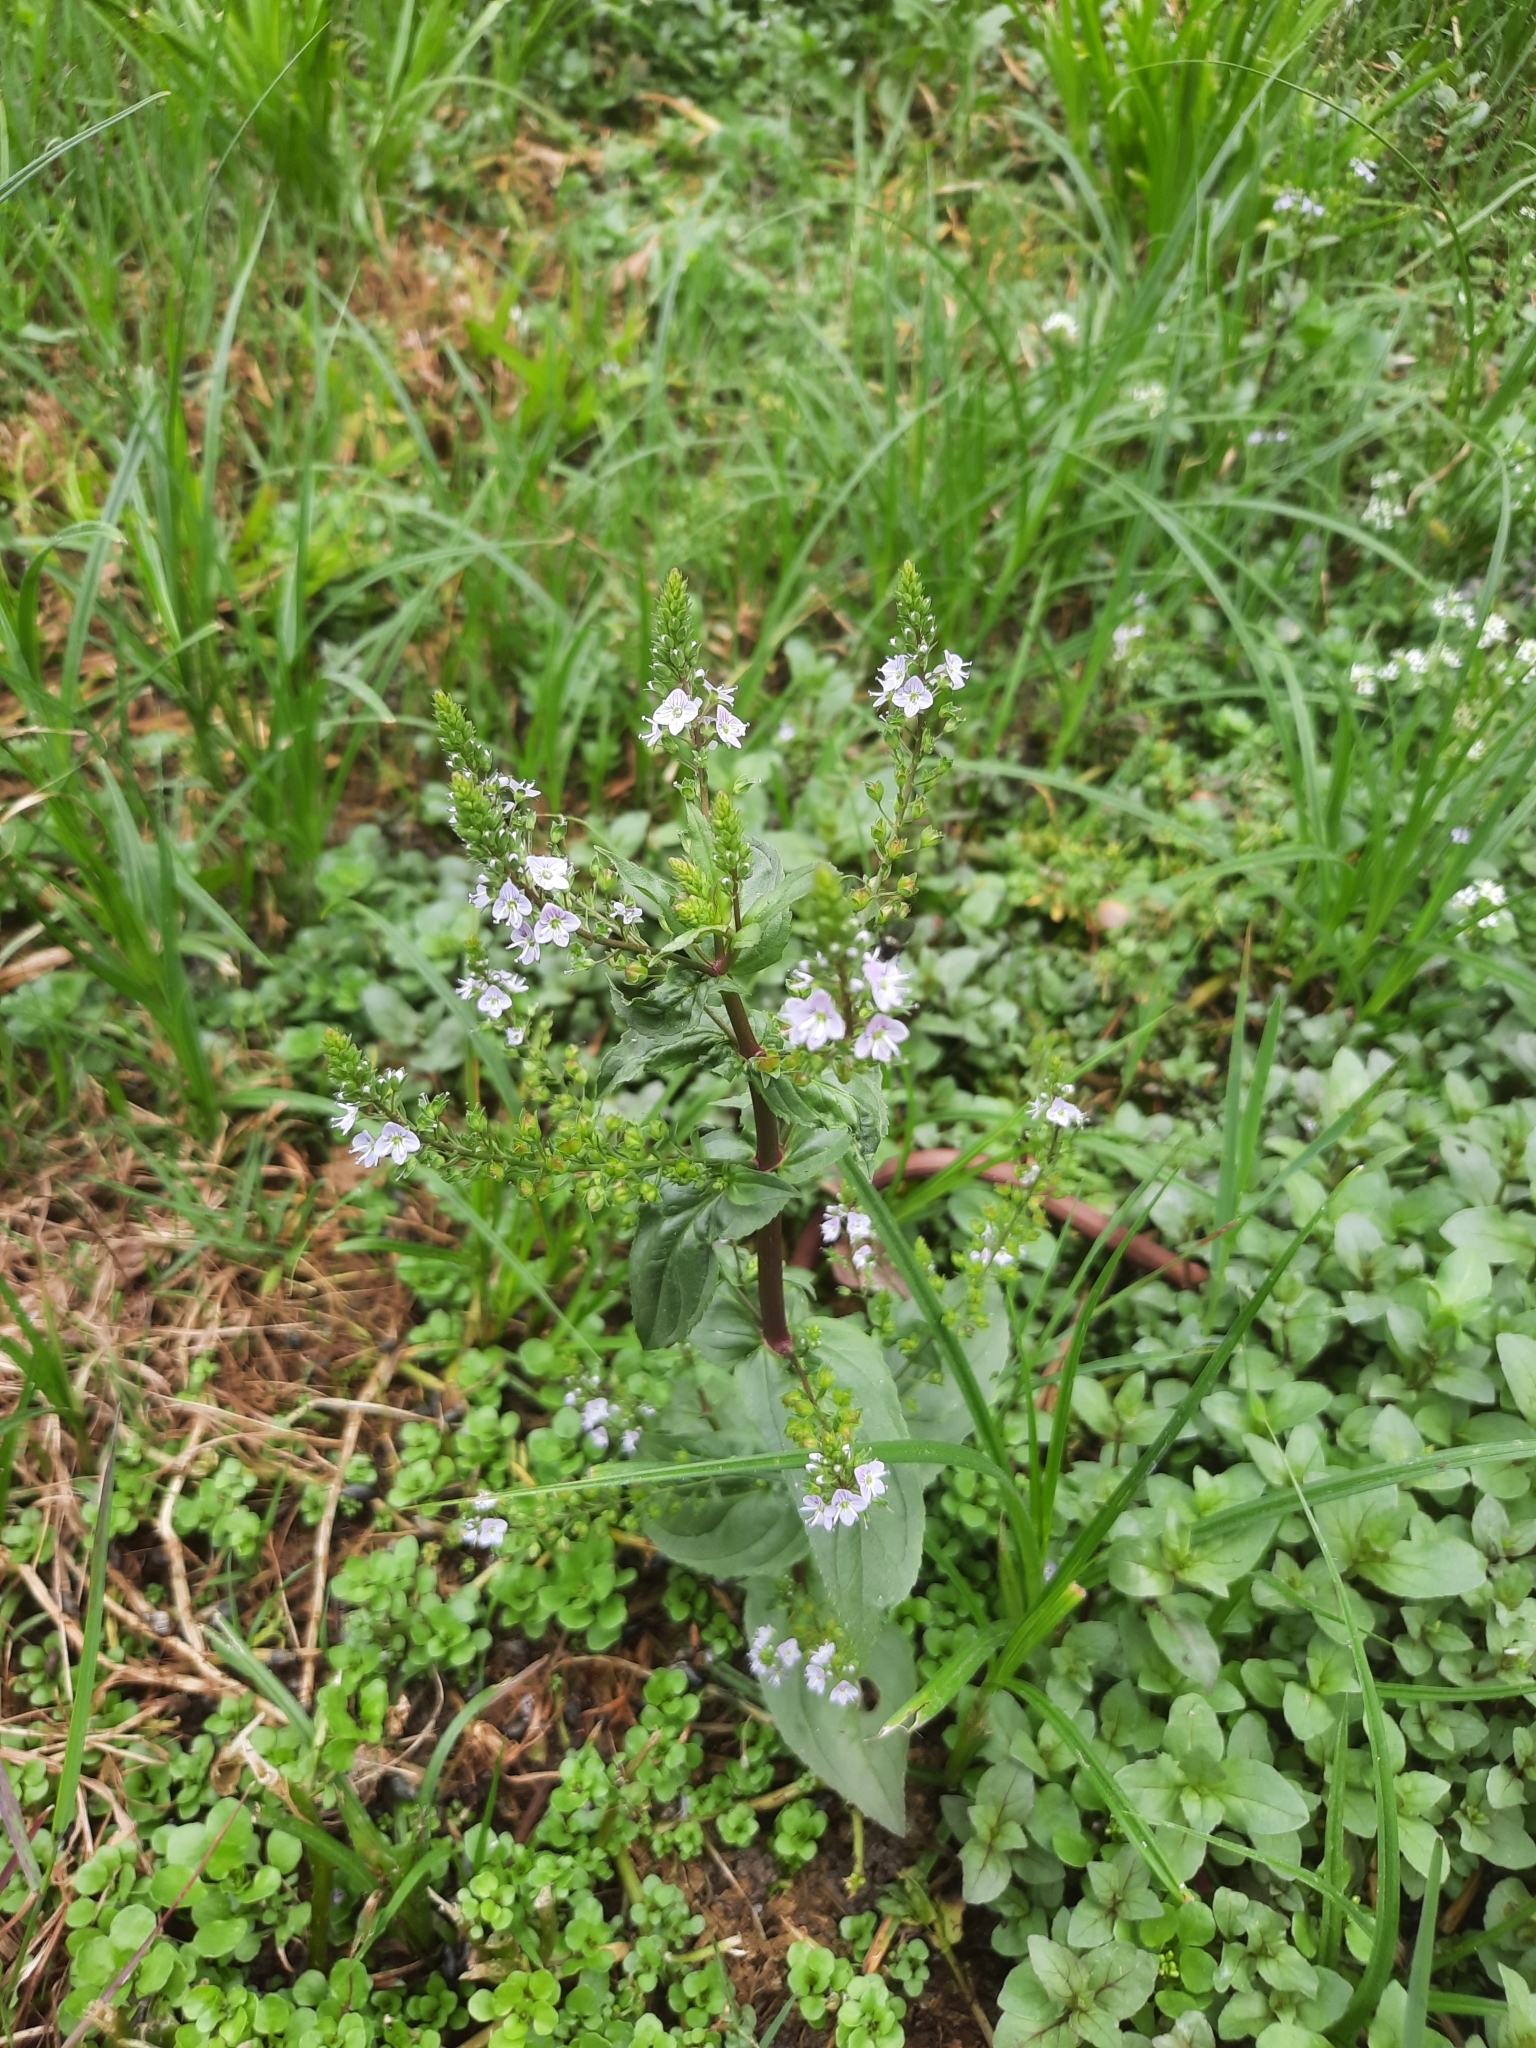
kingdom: Plantae
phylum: Tracheophyta
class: Magnoliopsida
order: Lamiales
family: Plantaginaceae
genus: Veronica
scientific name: Veronica anagallis-aquatica
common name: Water speedwell
